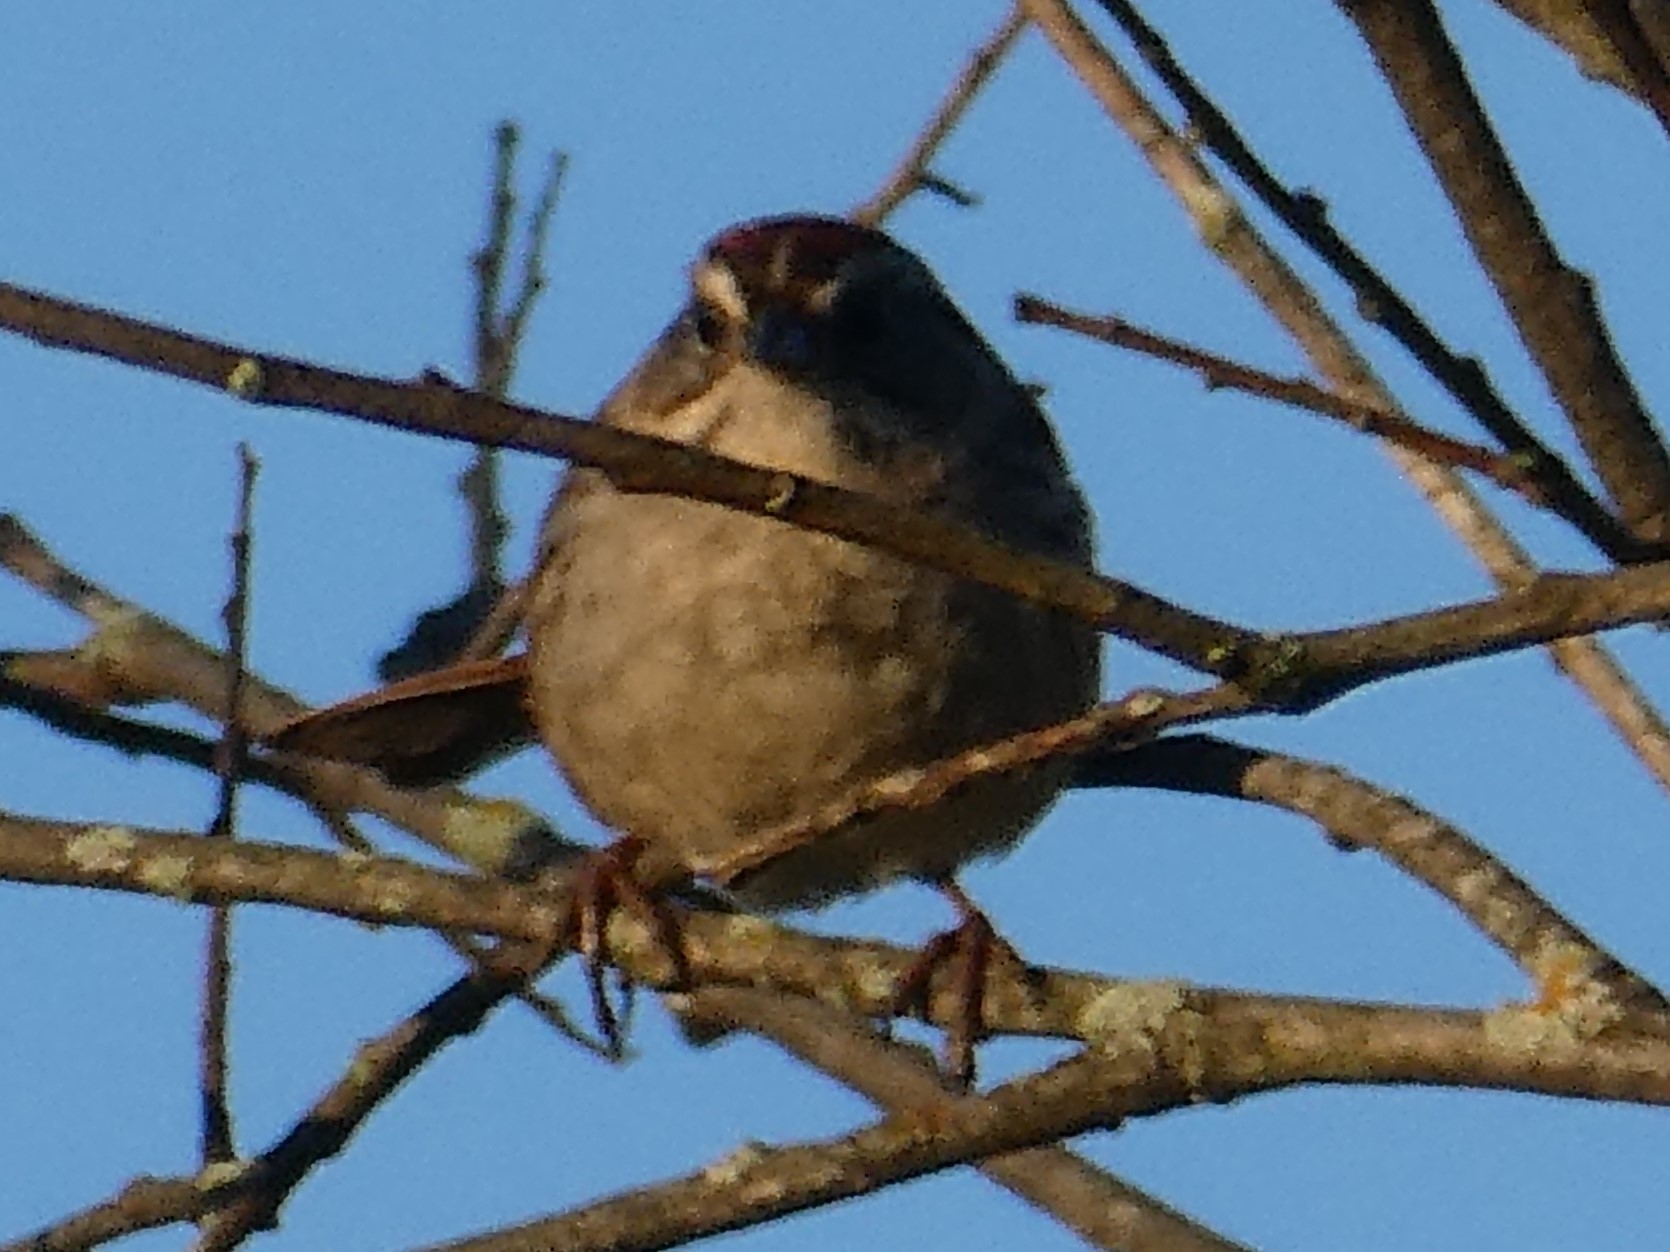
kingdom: Animalia
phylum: Chordata
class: Aves
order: Passeriformes
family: Passerellidae
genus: Melospiza
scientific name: Melospiza georgiana
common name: Swamp sparrow
